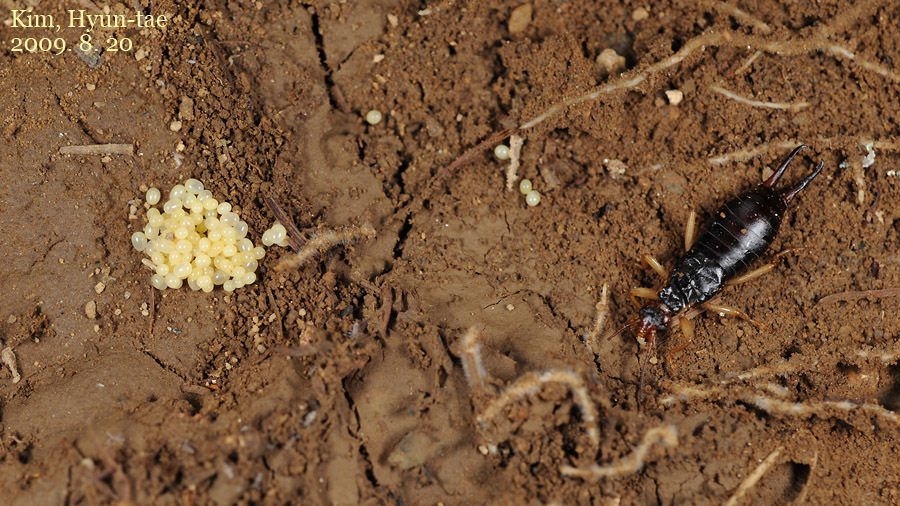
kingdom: Animalia
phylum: Arthropoda
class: Insecta
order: Dermaptera
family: Forficulidae
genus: Forficula
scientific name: Forficula scudderii
